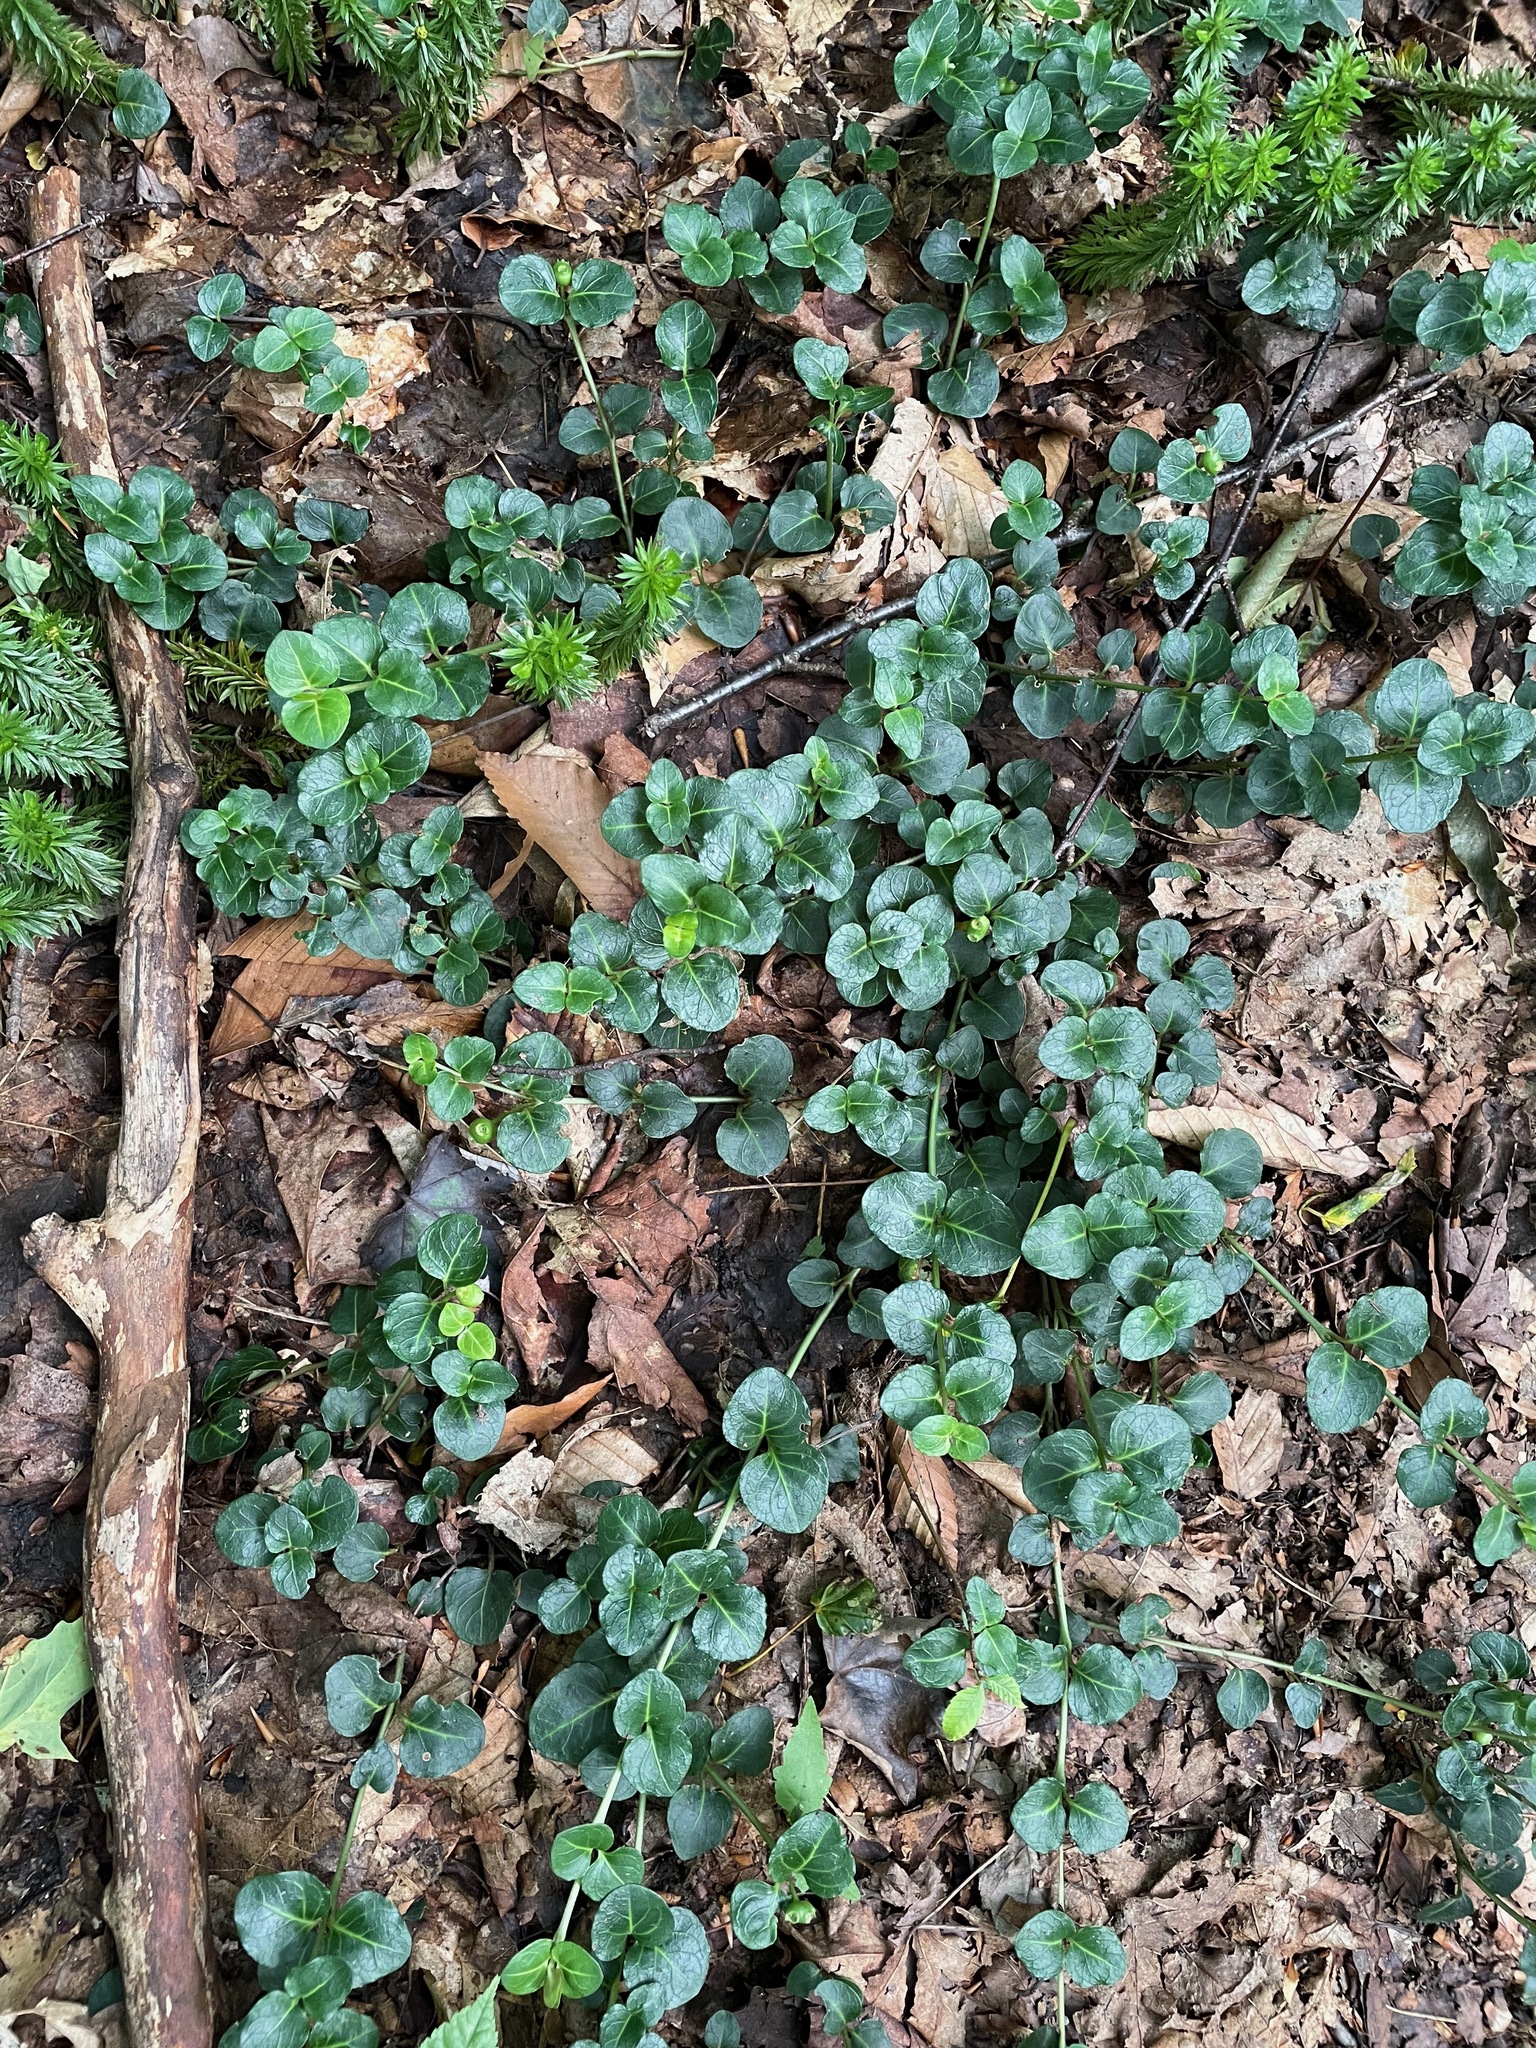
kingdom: Plantae
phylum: Tracheophyta
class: Magnoliopsida
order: Gentianales
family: Rubiaceae
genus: Mitchella
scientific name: Mitchella repens
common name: Partridge-berry
